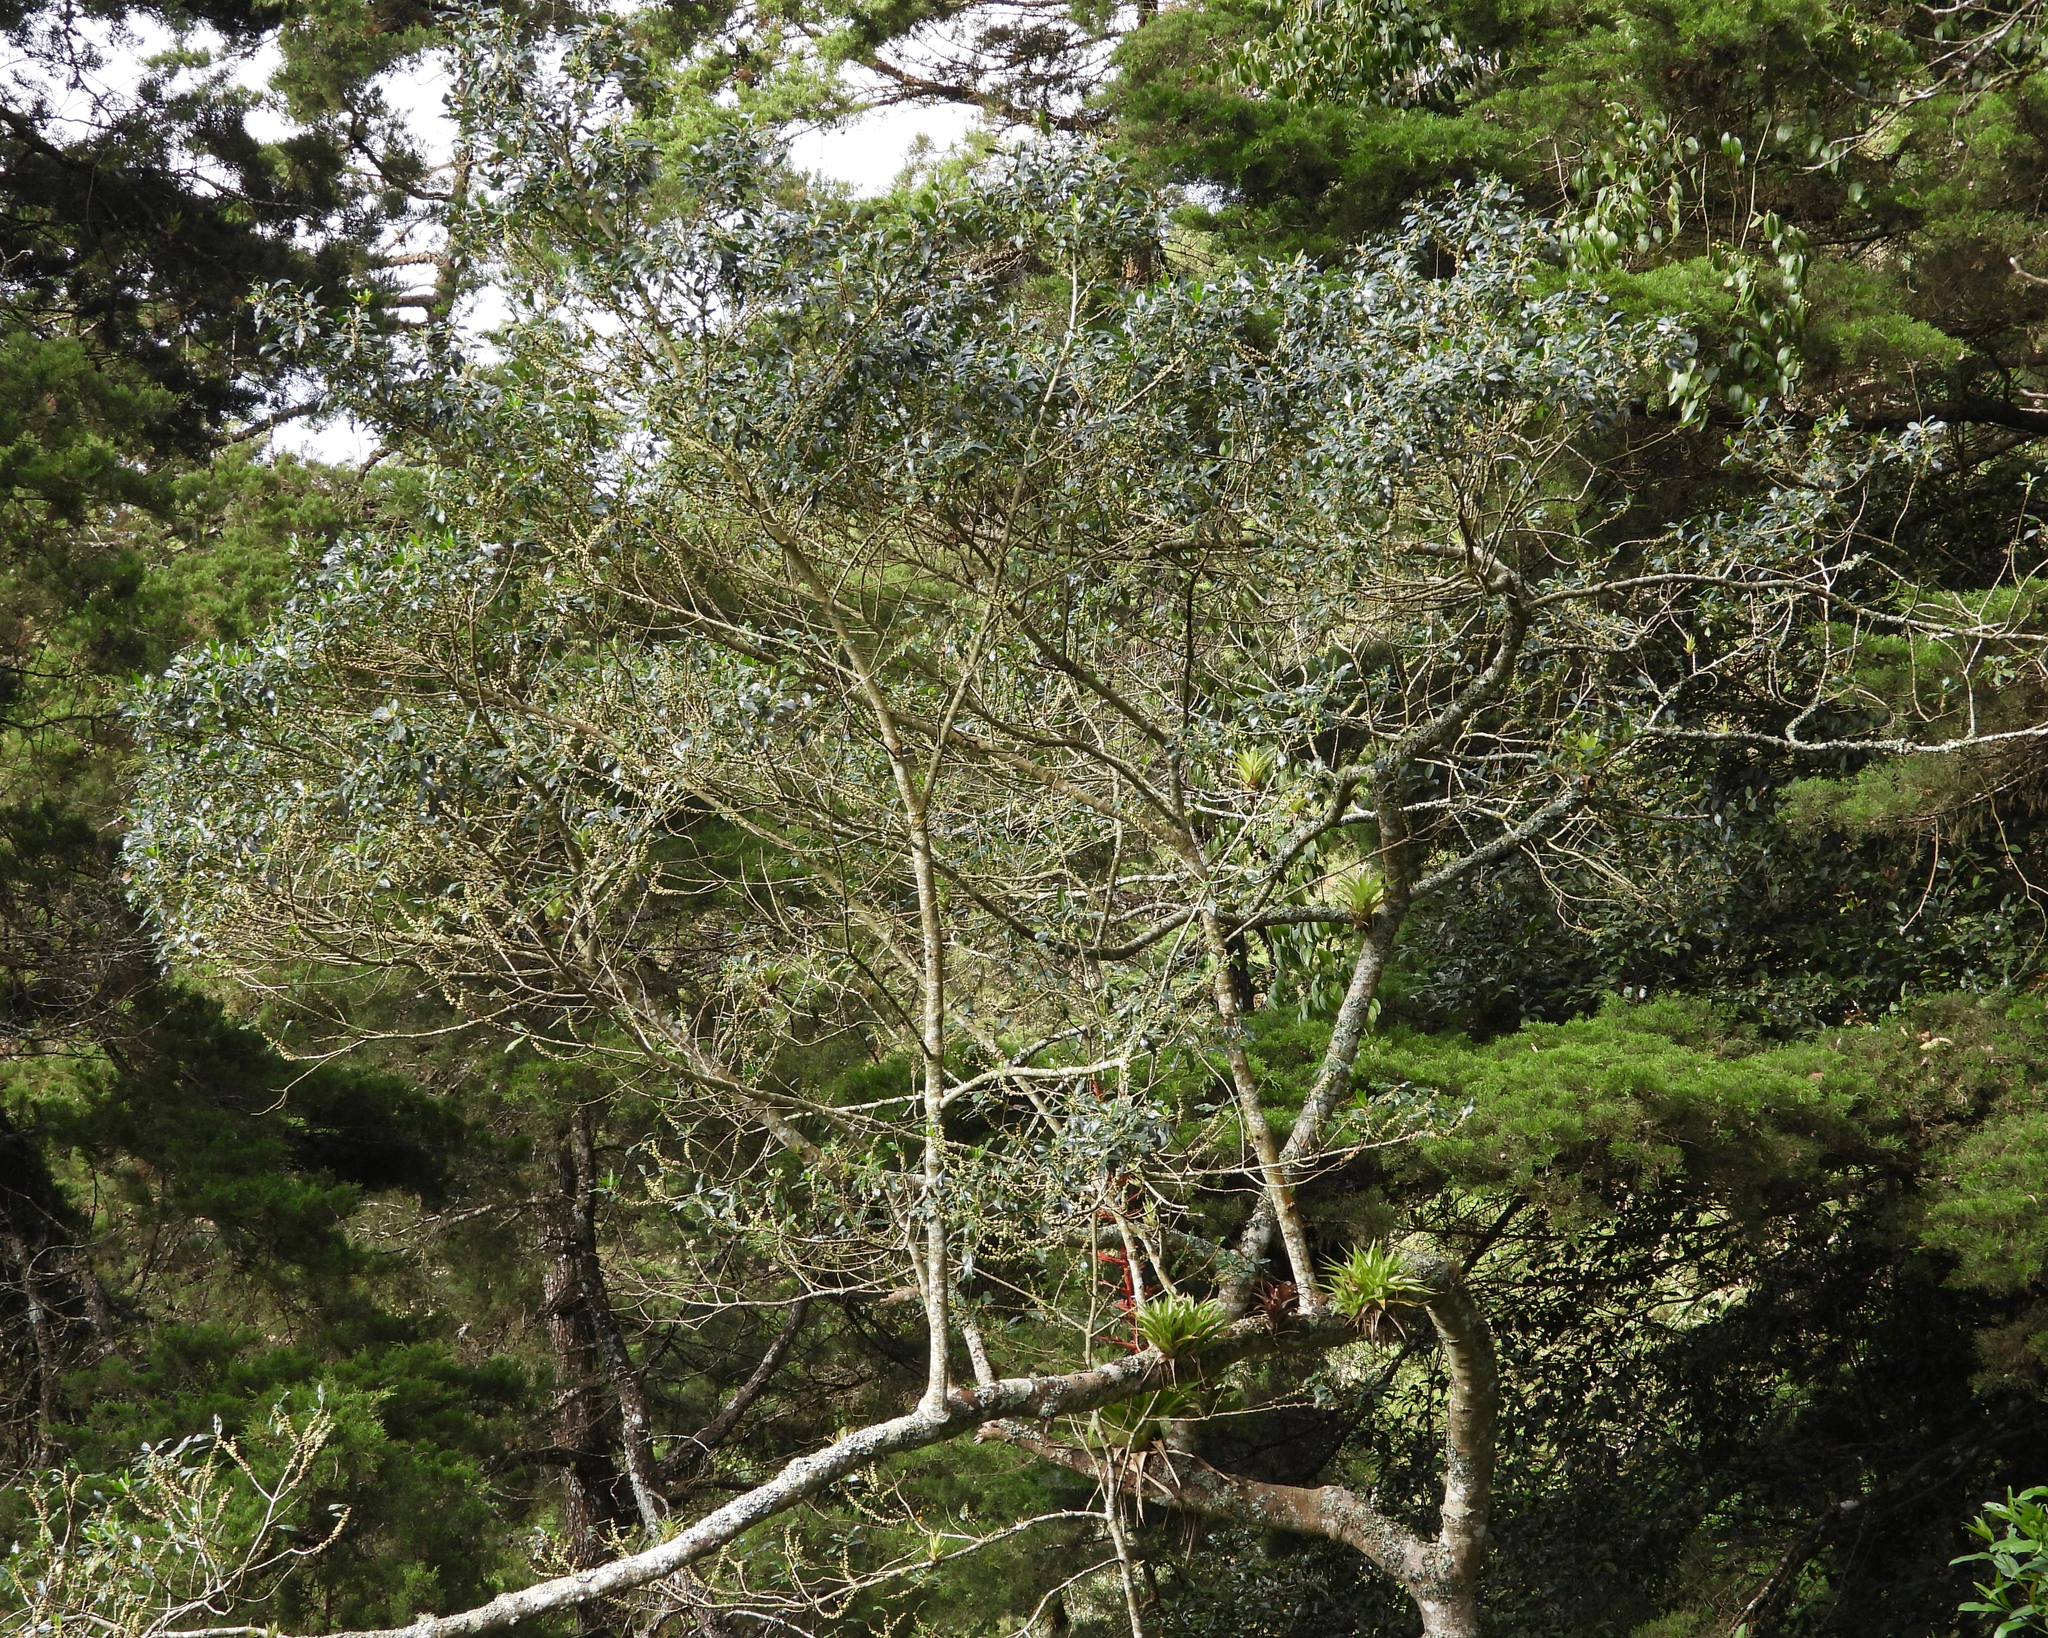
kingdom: Plantae
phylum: Tracheophyta
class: Magnoliopsida
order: Ericales
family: Primulaceae
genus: Myrsine
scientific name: Myrsine coriacea
